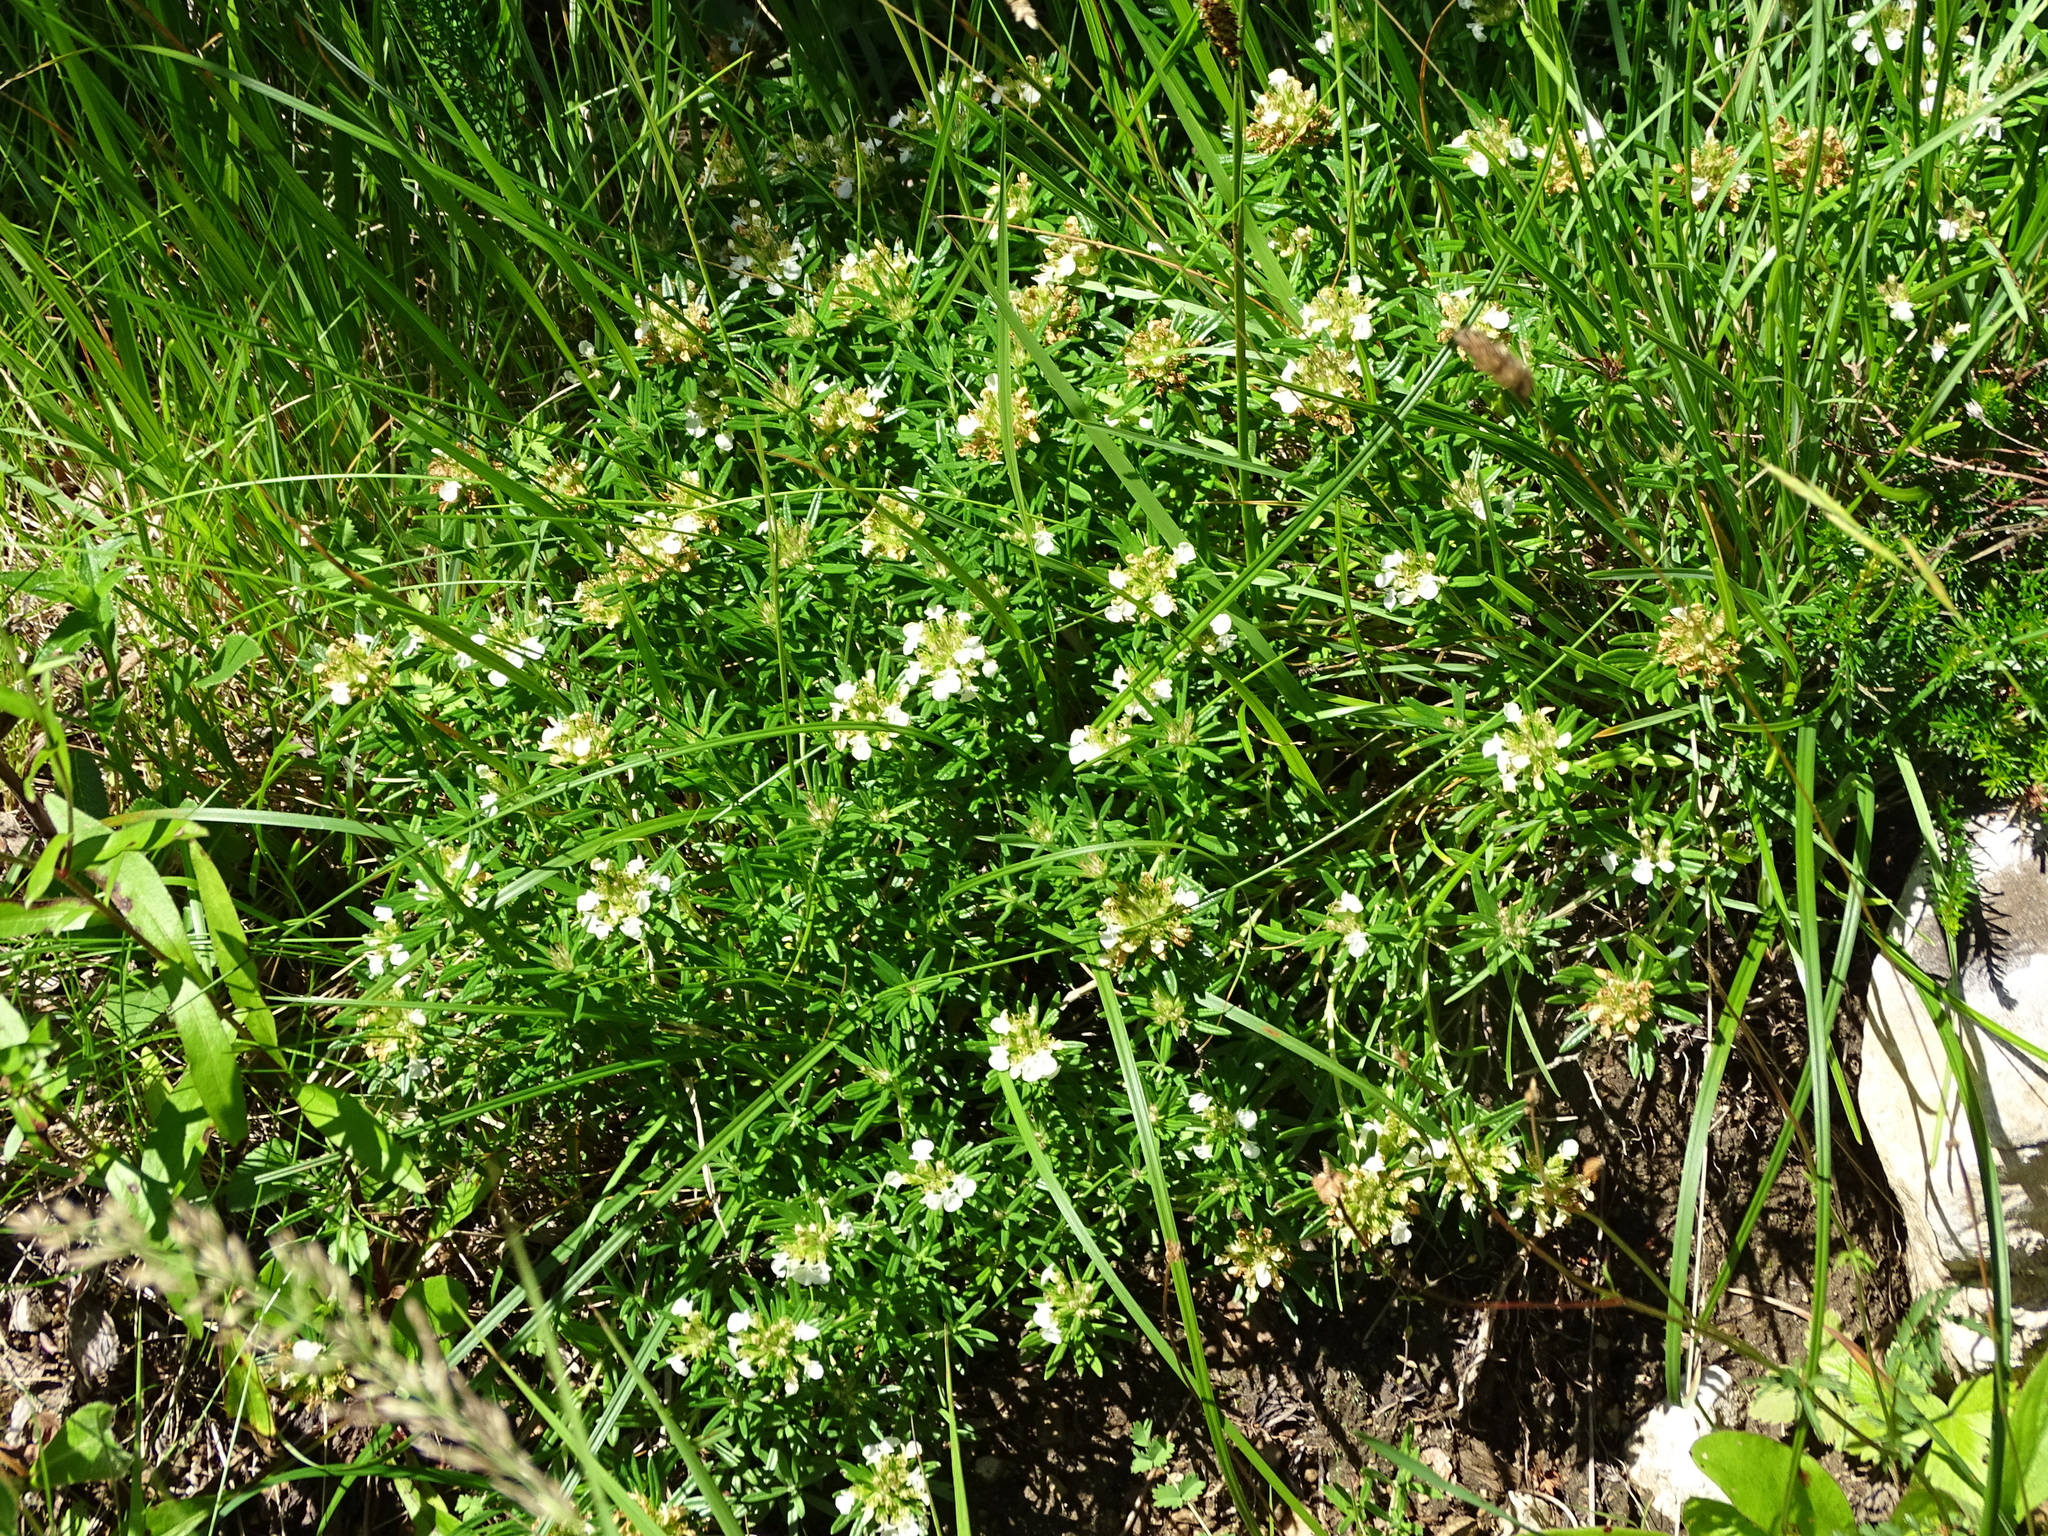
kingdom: Plantae
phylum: Tracheophyta
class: Magnoliopsida
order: Lamiales
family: Lamiaceae
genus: Teucrium
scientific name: Teucrium montanum
